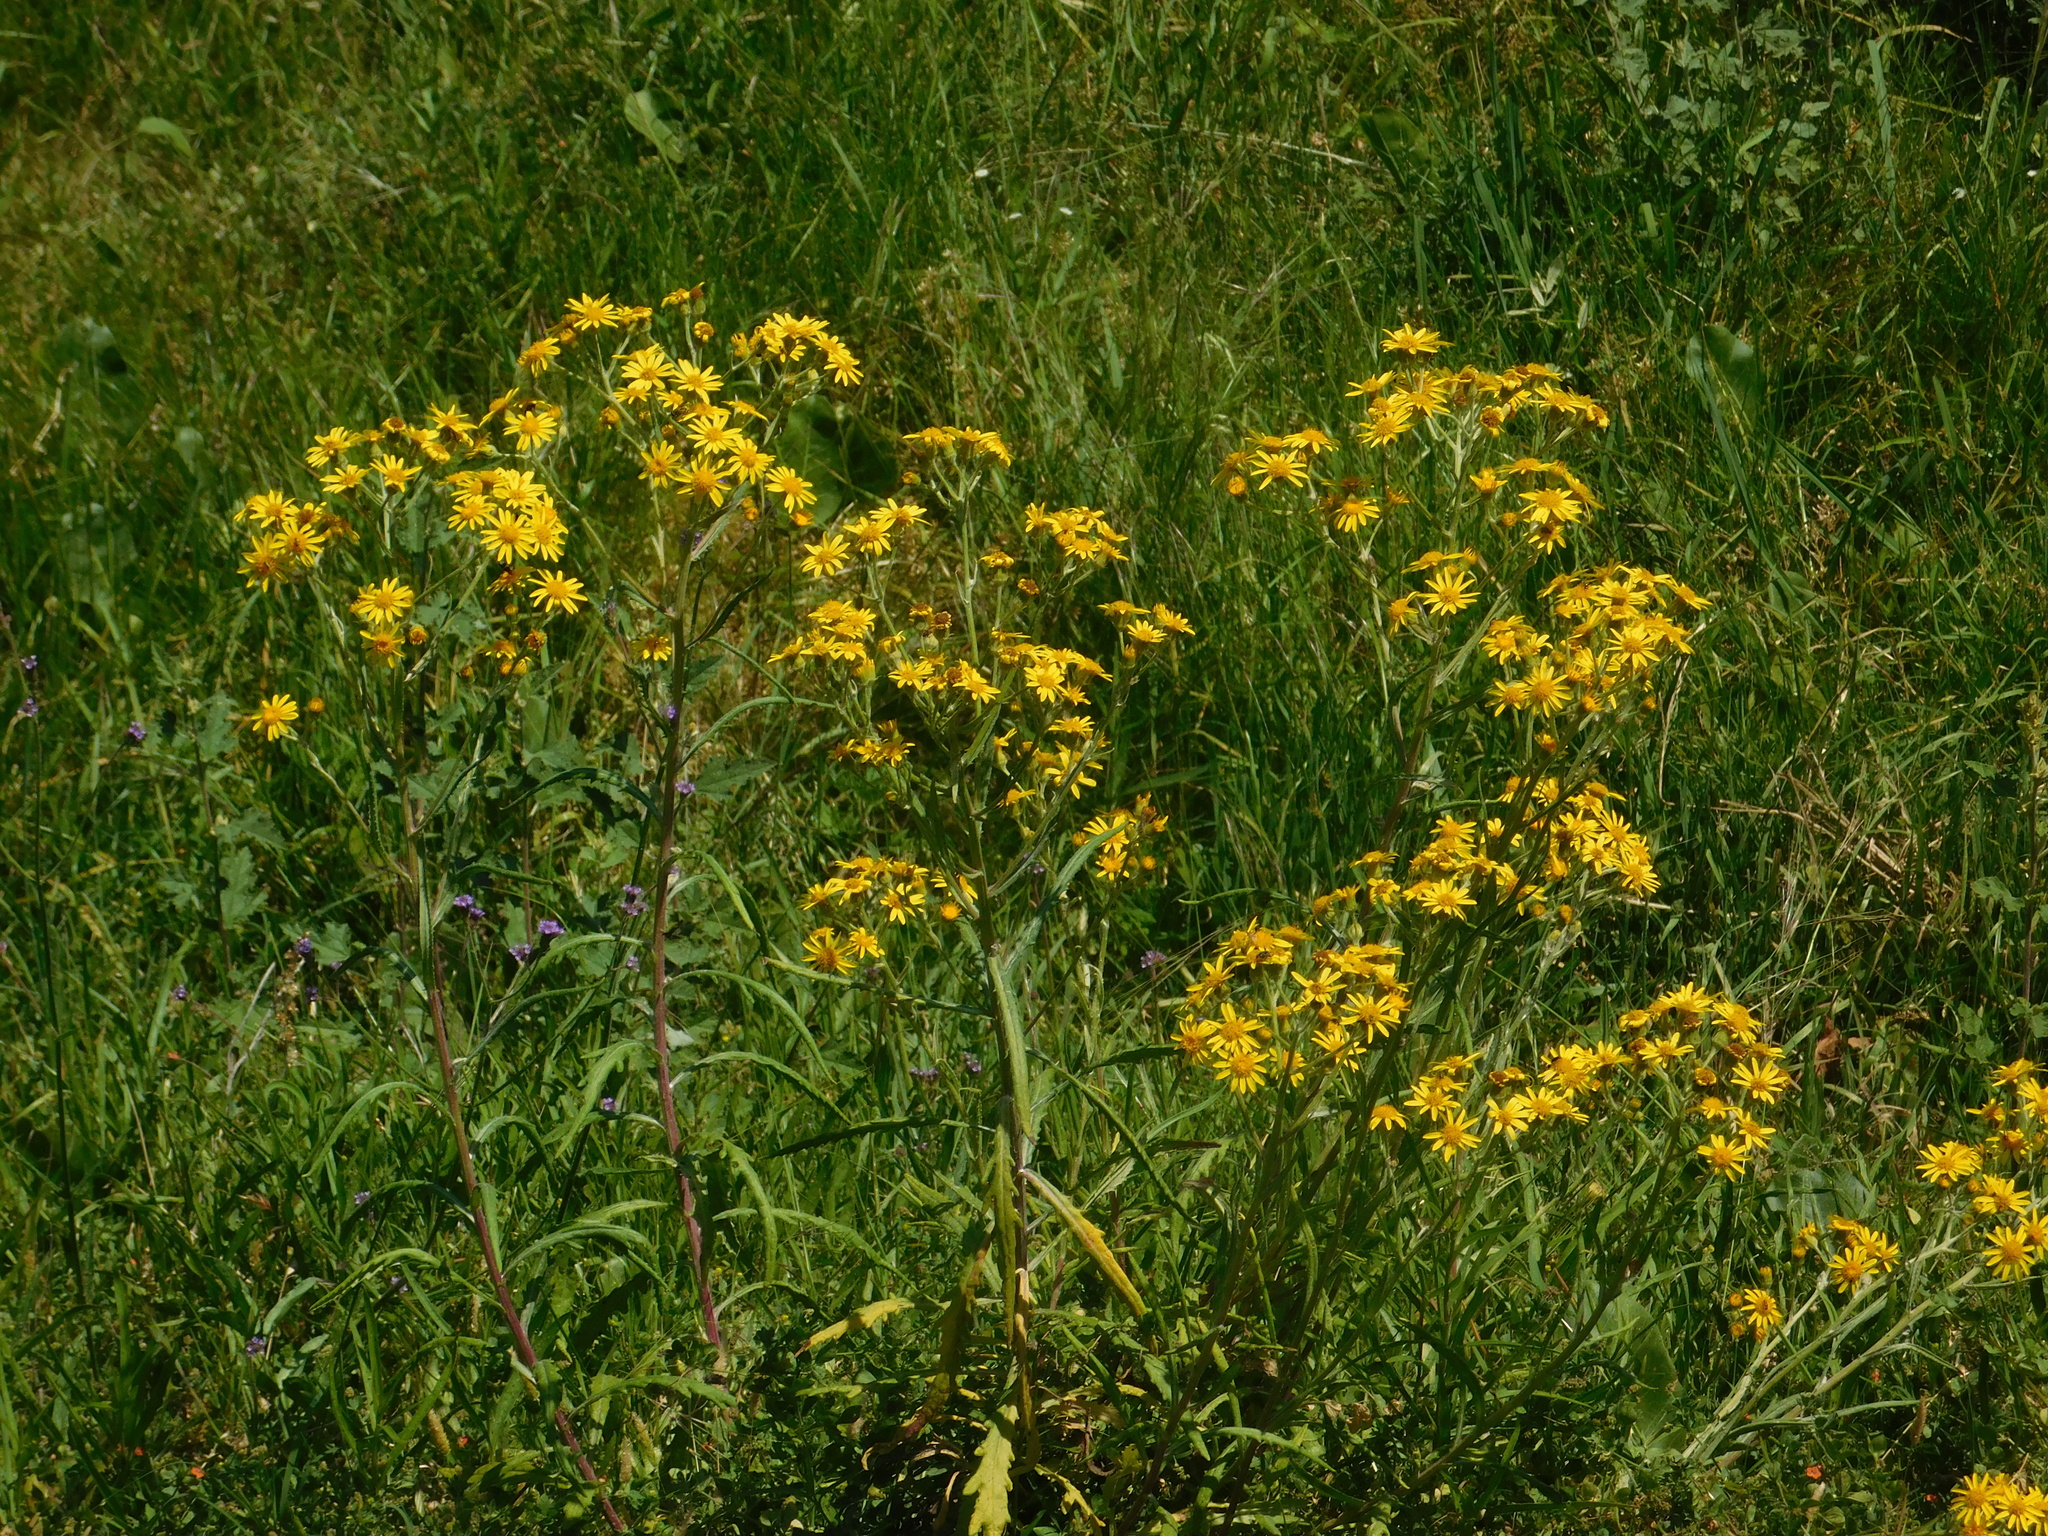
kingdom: Plantae
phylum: Tracheophyta
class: Magnoliopsida
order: Asterales
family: Asteraceae
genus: Senecio
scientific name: Senecio pterophorus
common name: Shoddy ragwort
